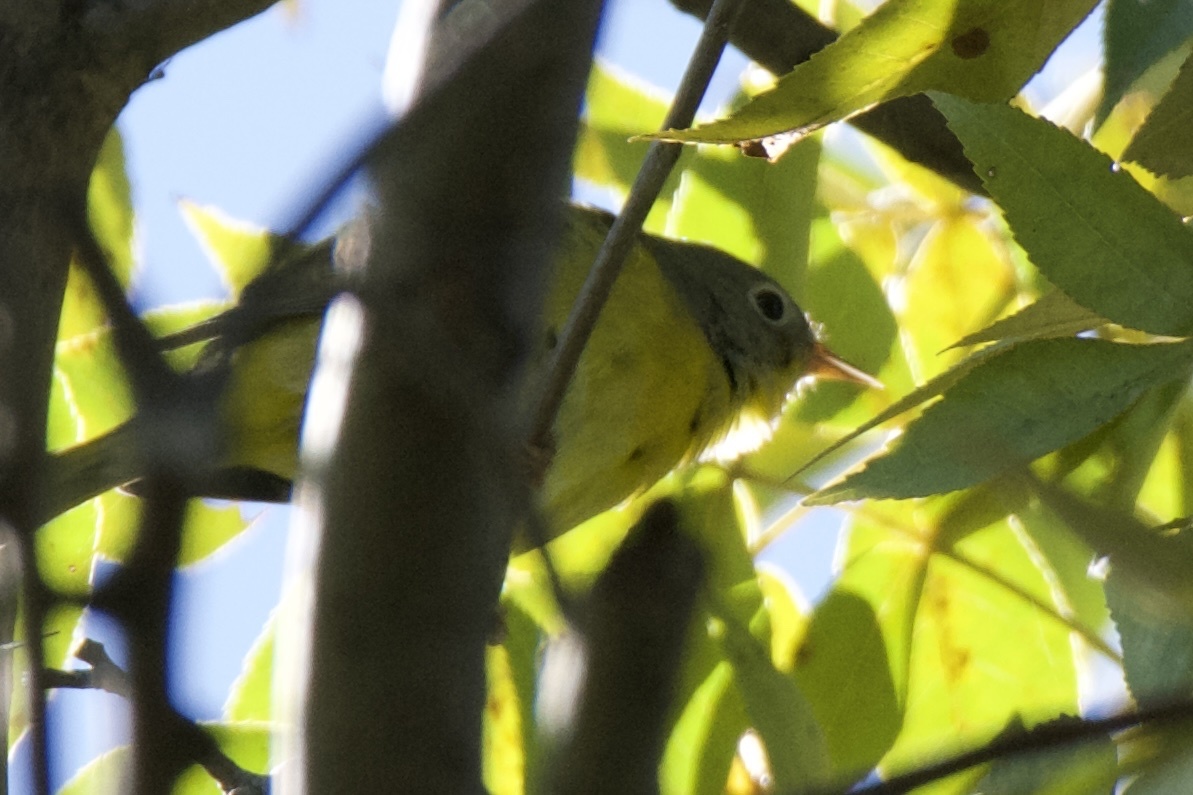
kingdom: Animalia
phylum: Chordata
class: Aves
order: Passeriformes
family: Parulidae
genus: Leiothlypis
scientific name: Leiothlypis ruficapilla
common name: Nashville warbler
